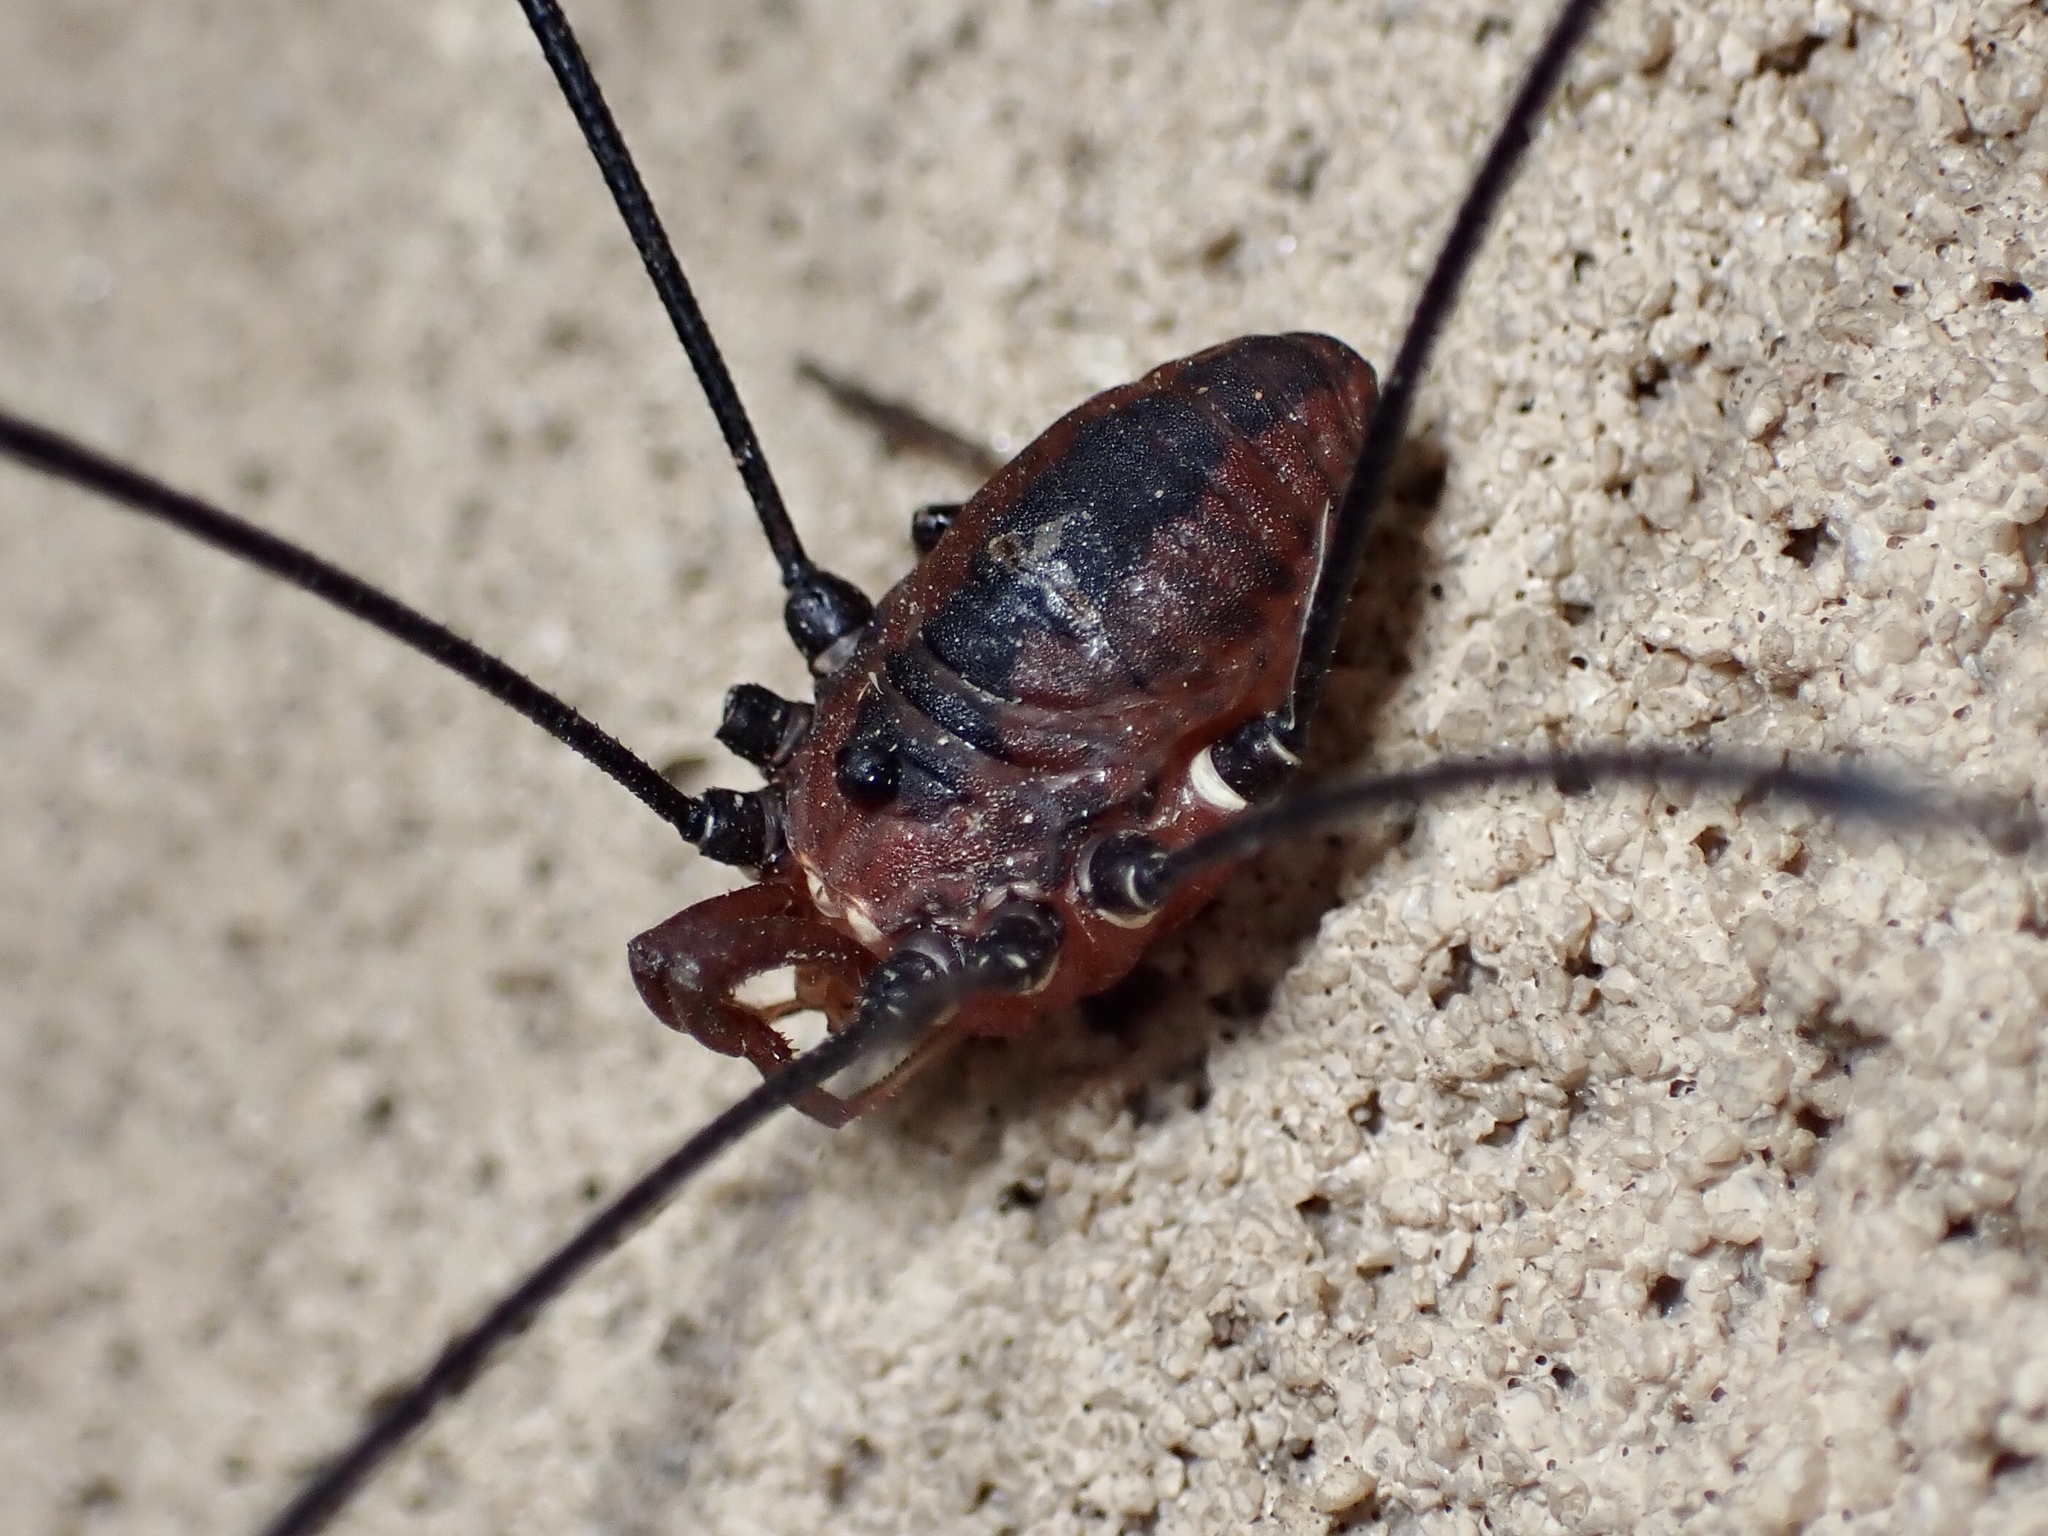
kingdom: Animalia
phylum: Arthropoda
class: Arachnida
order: Opiliones
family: Sclerosomatidae
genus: Leiobunum
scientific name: Leiobunum vittatum
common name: Eastern harvestman
